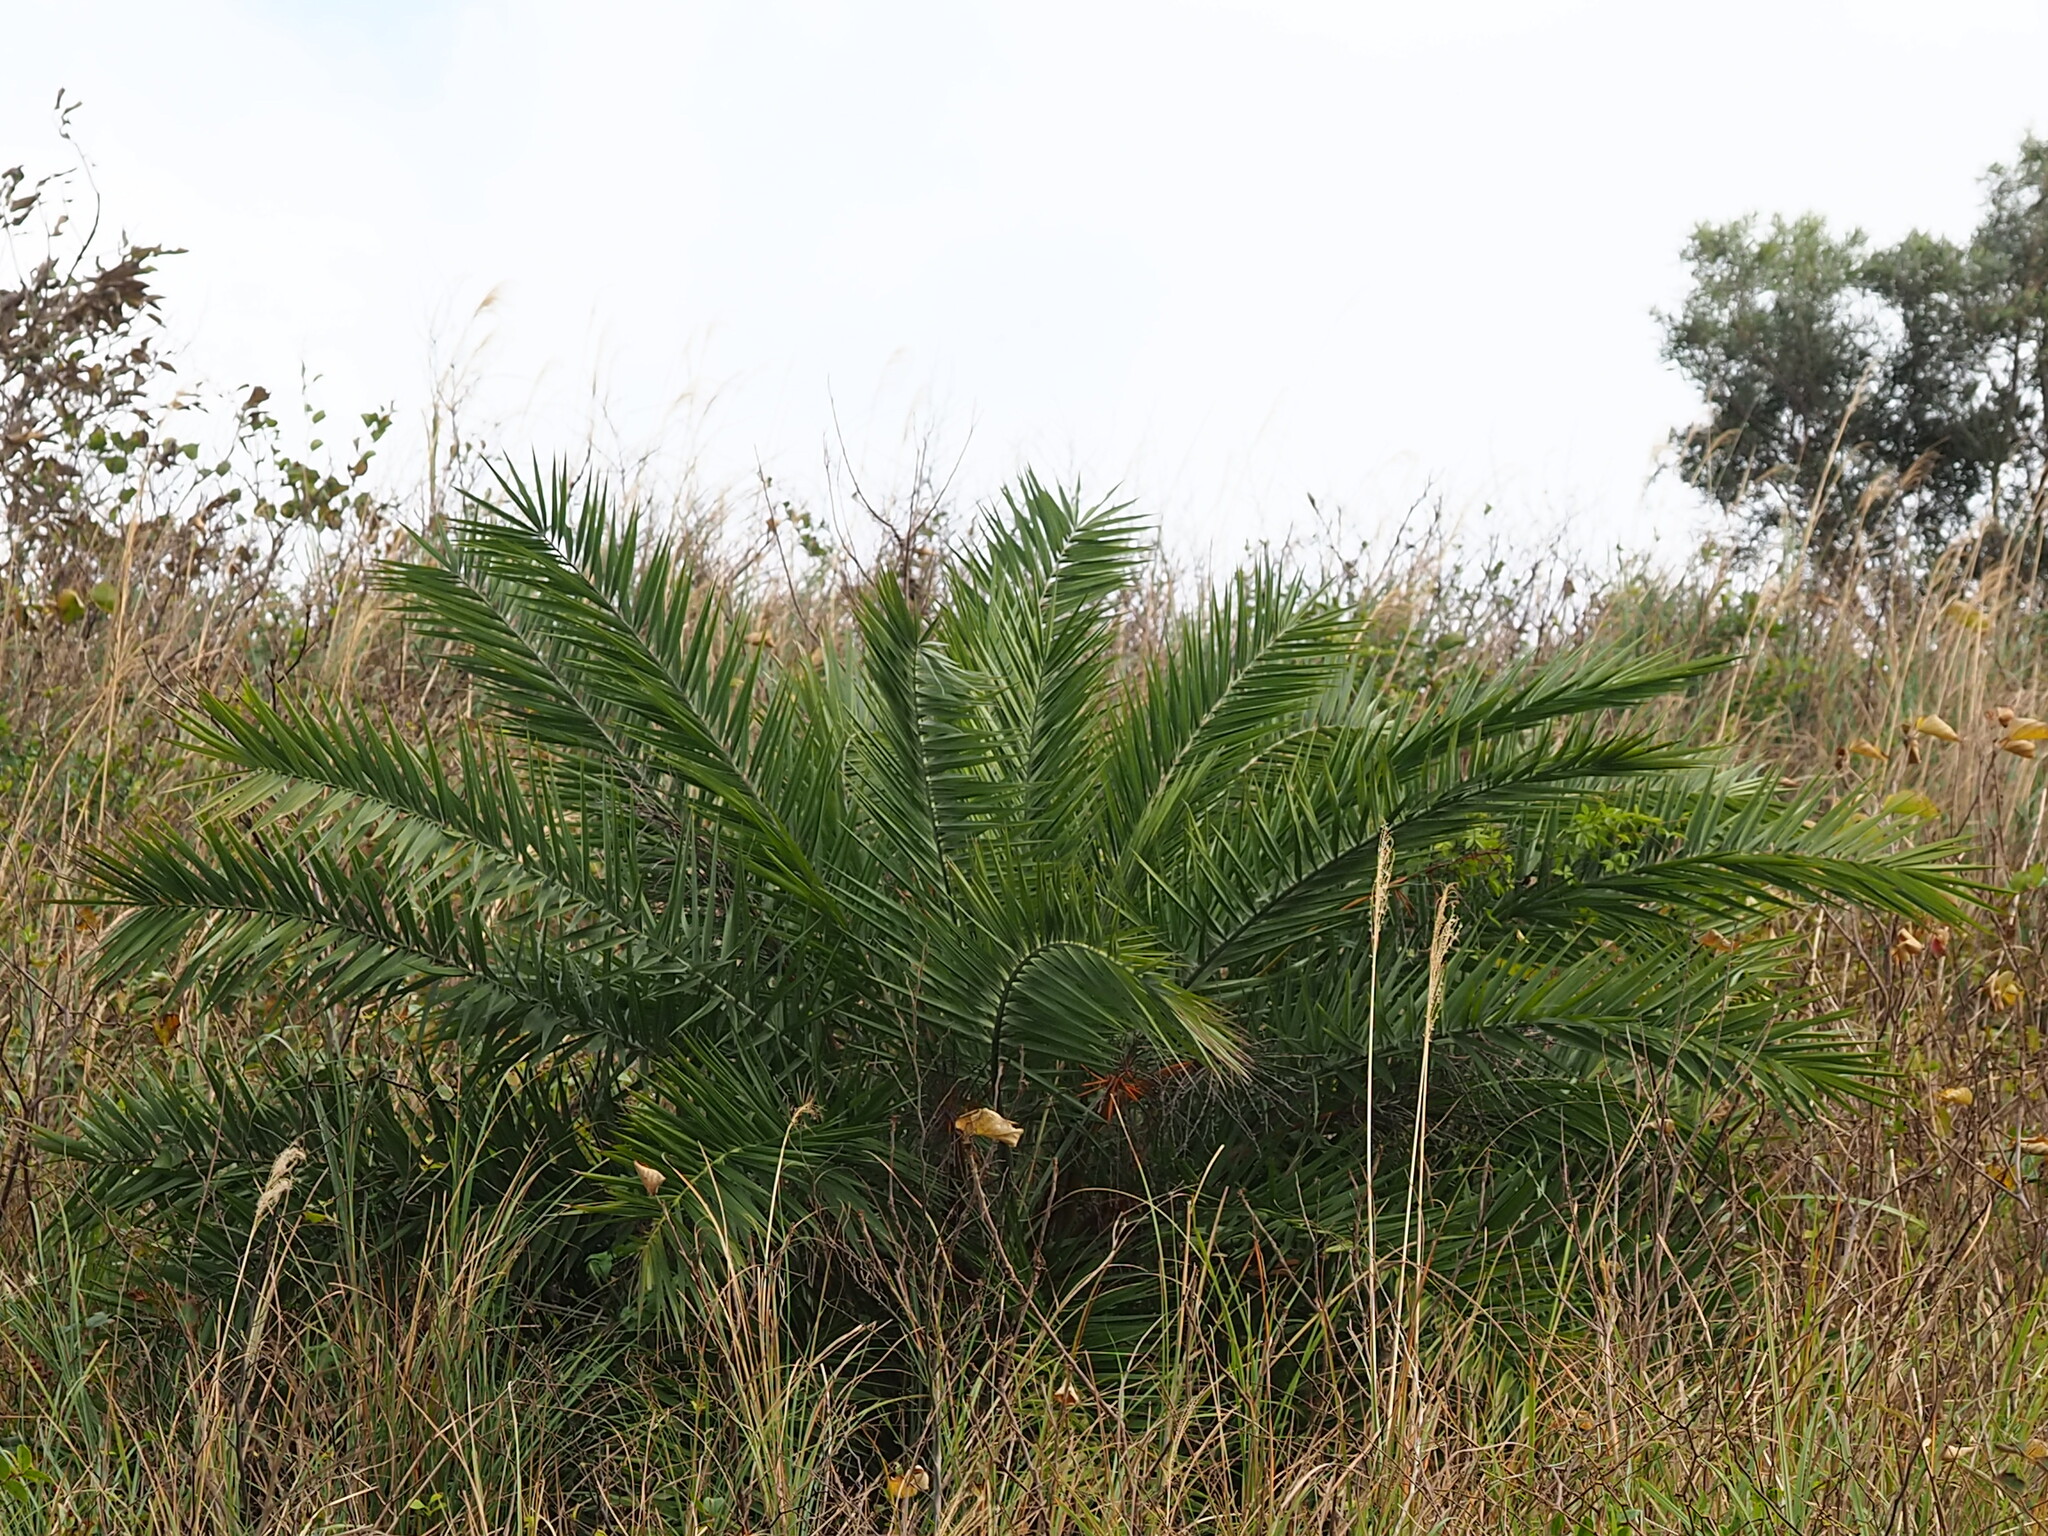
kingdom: Plantae
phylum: Tracheophyta
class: Liliopsida
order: Arecales
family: Arecaceae
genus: Phoenix
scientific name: Phoenix loureiroi
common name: Loureiro's palm
